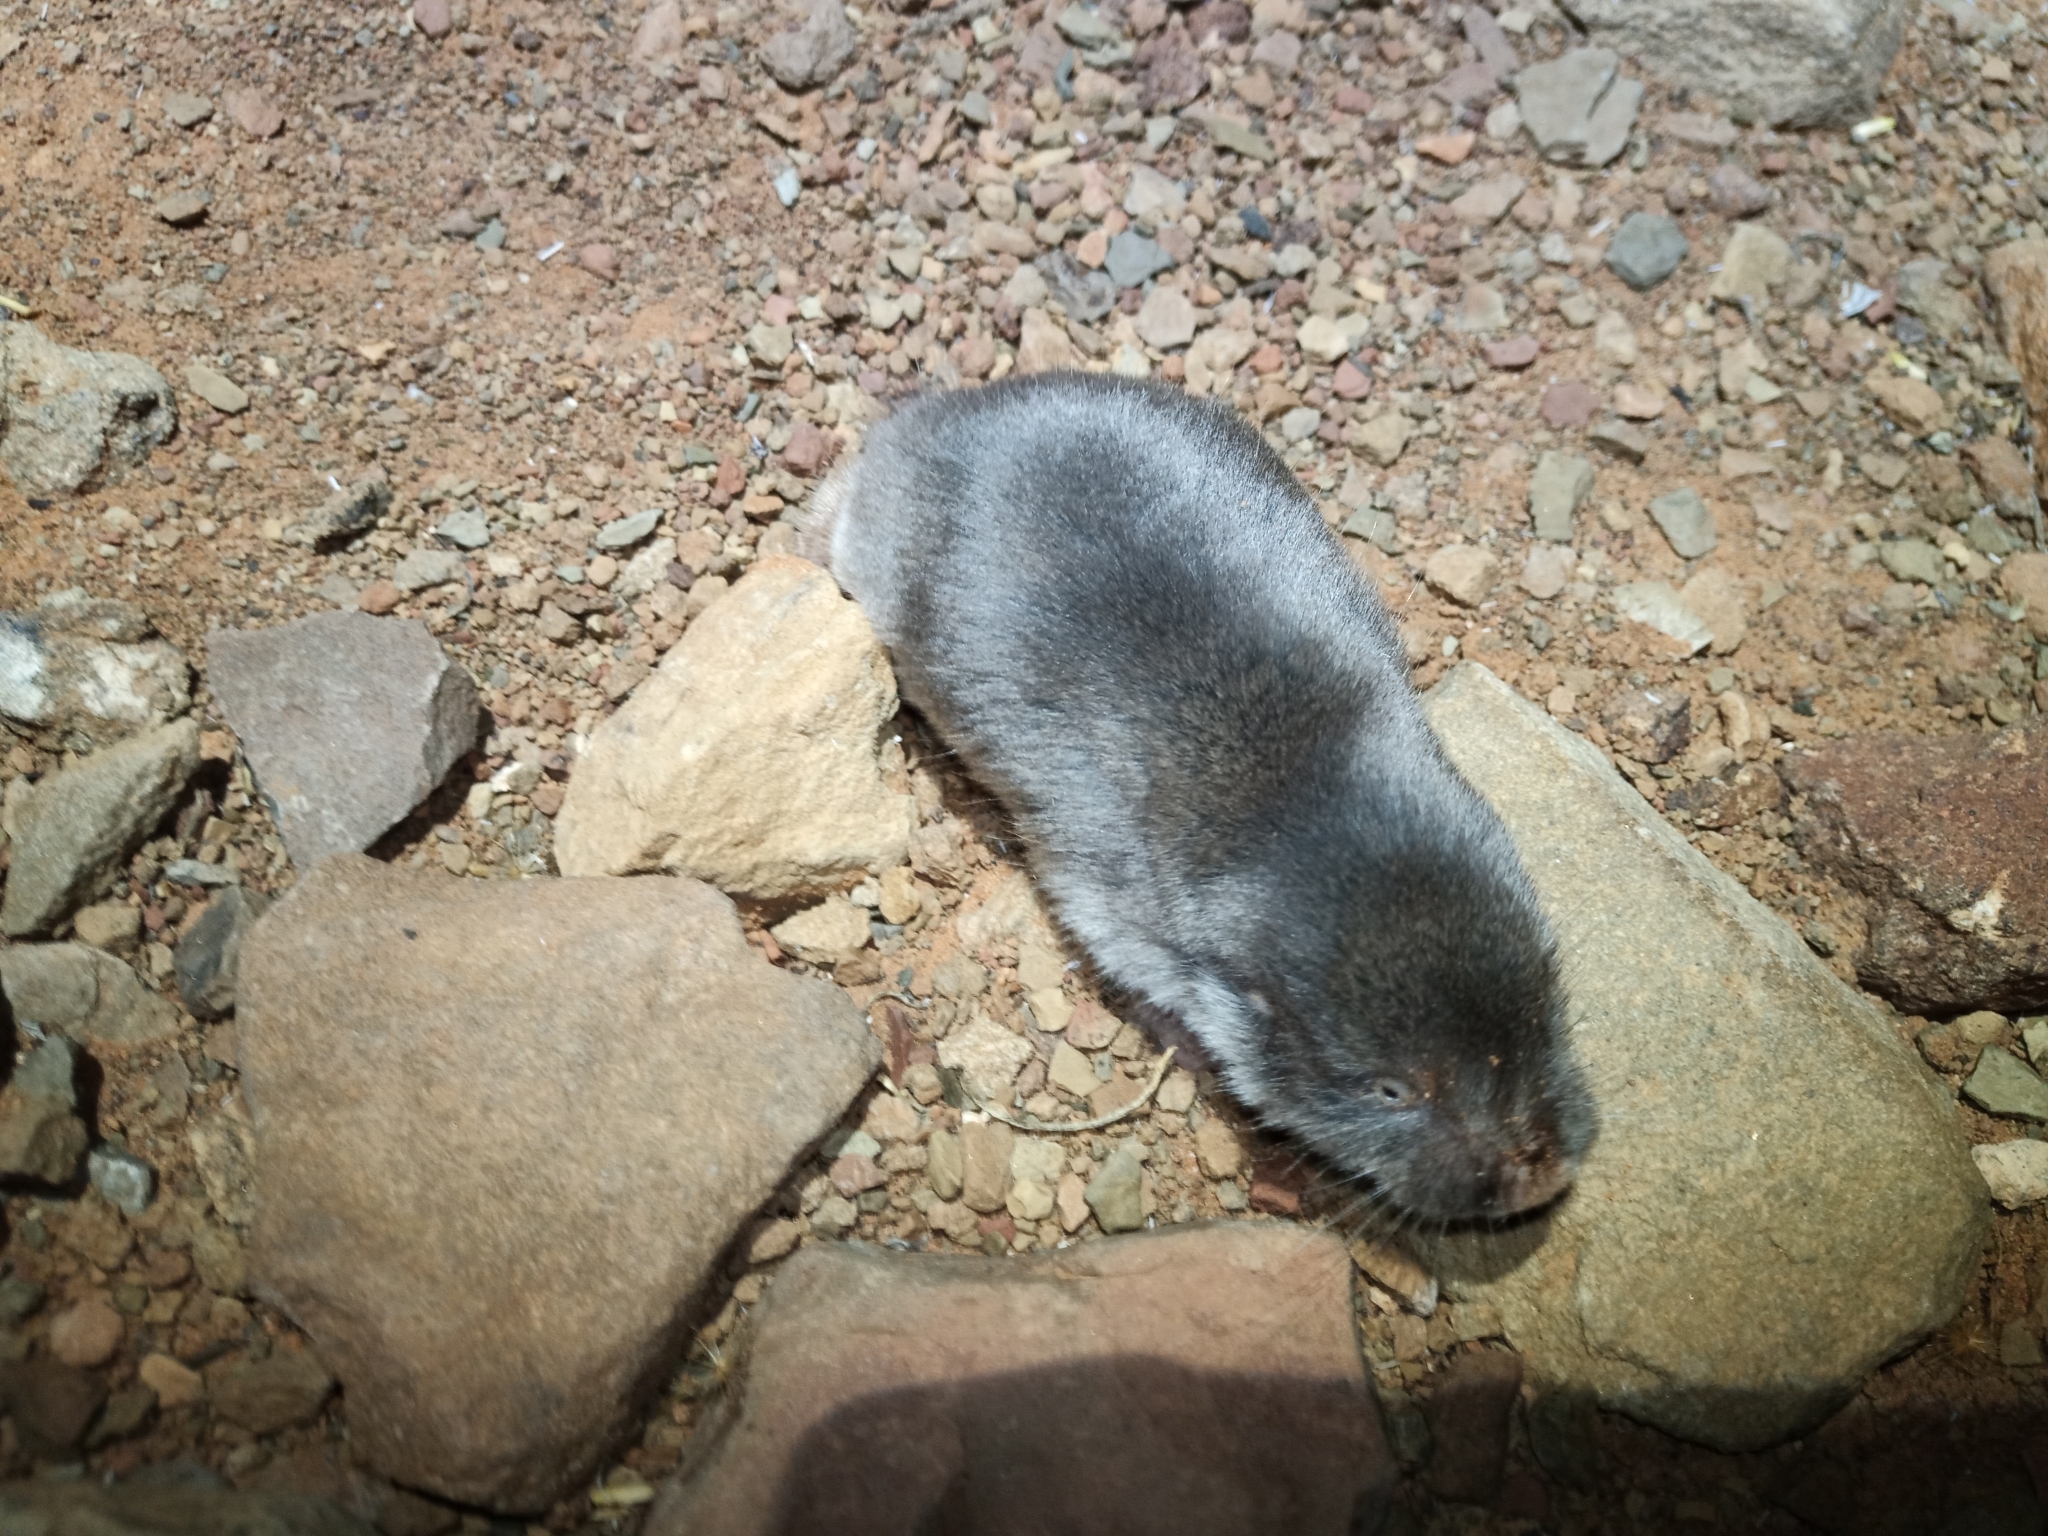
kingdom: Animalia
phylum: Chordata
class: Mammalia
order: Rodentia
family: Bathyergidae
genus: Cryptomys
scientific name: Cryptomys hottentotus
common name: Southern african mole-rat
